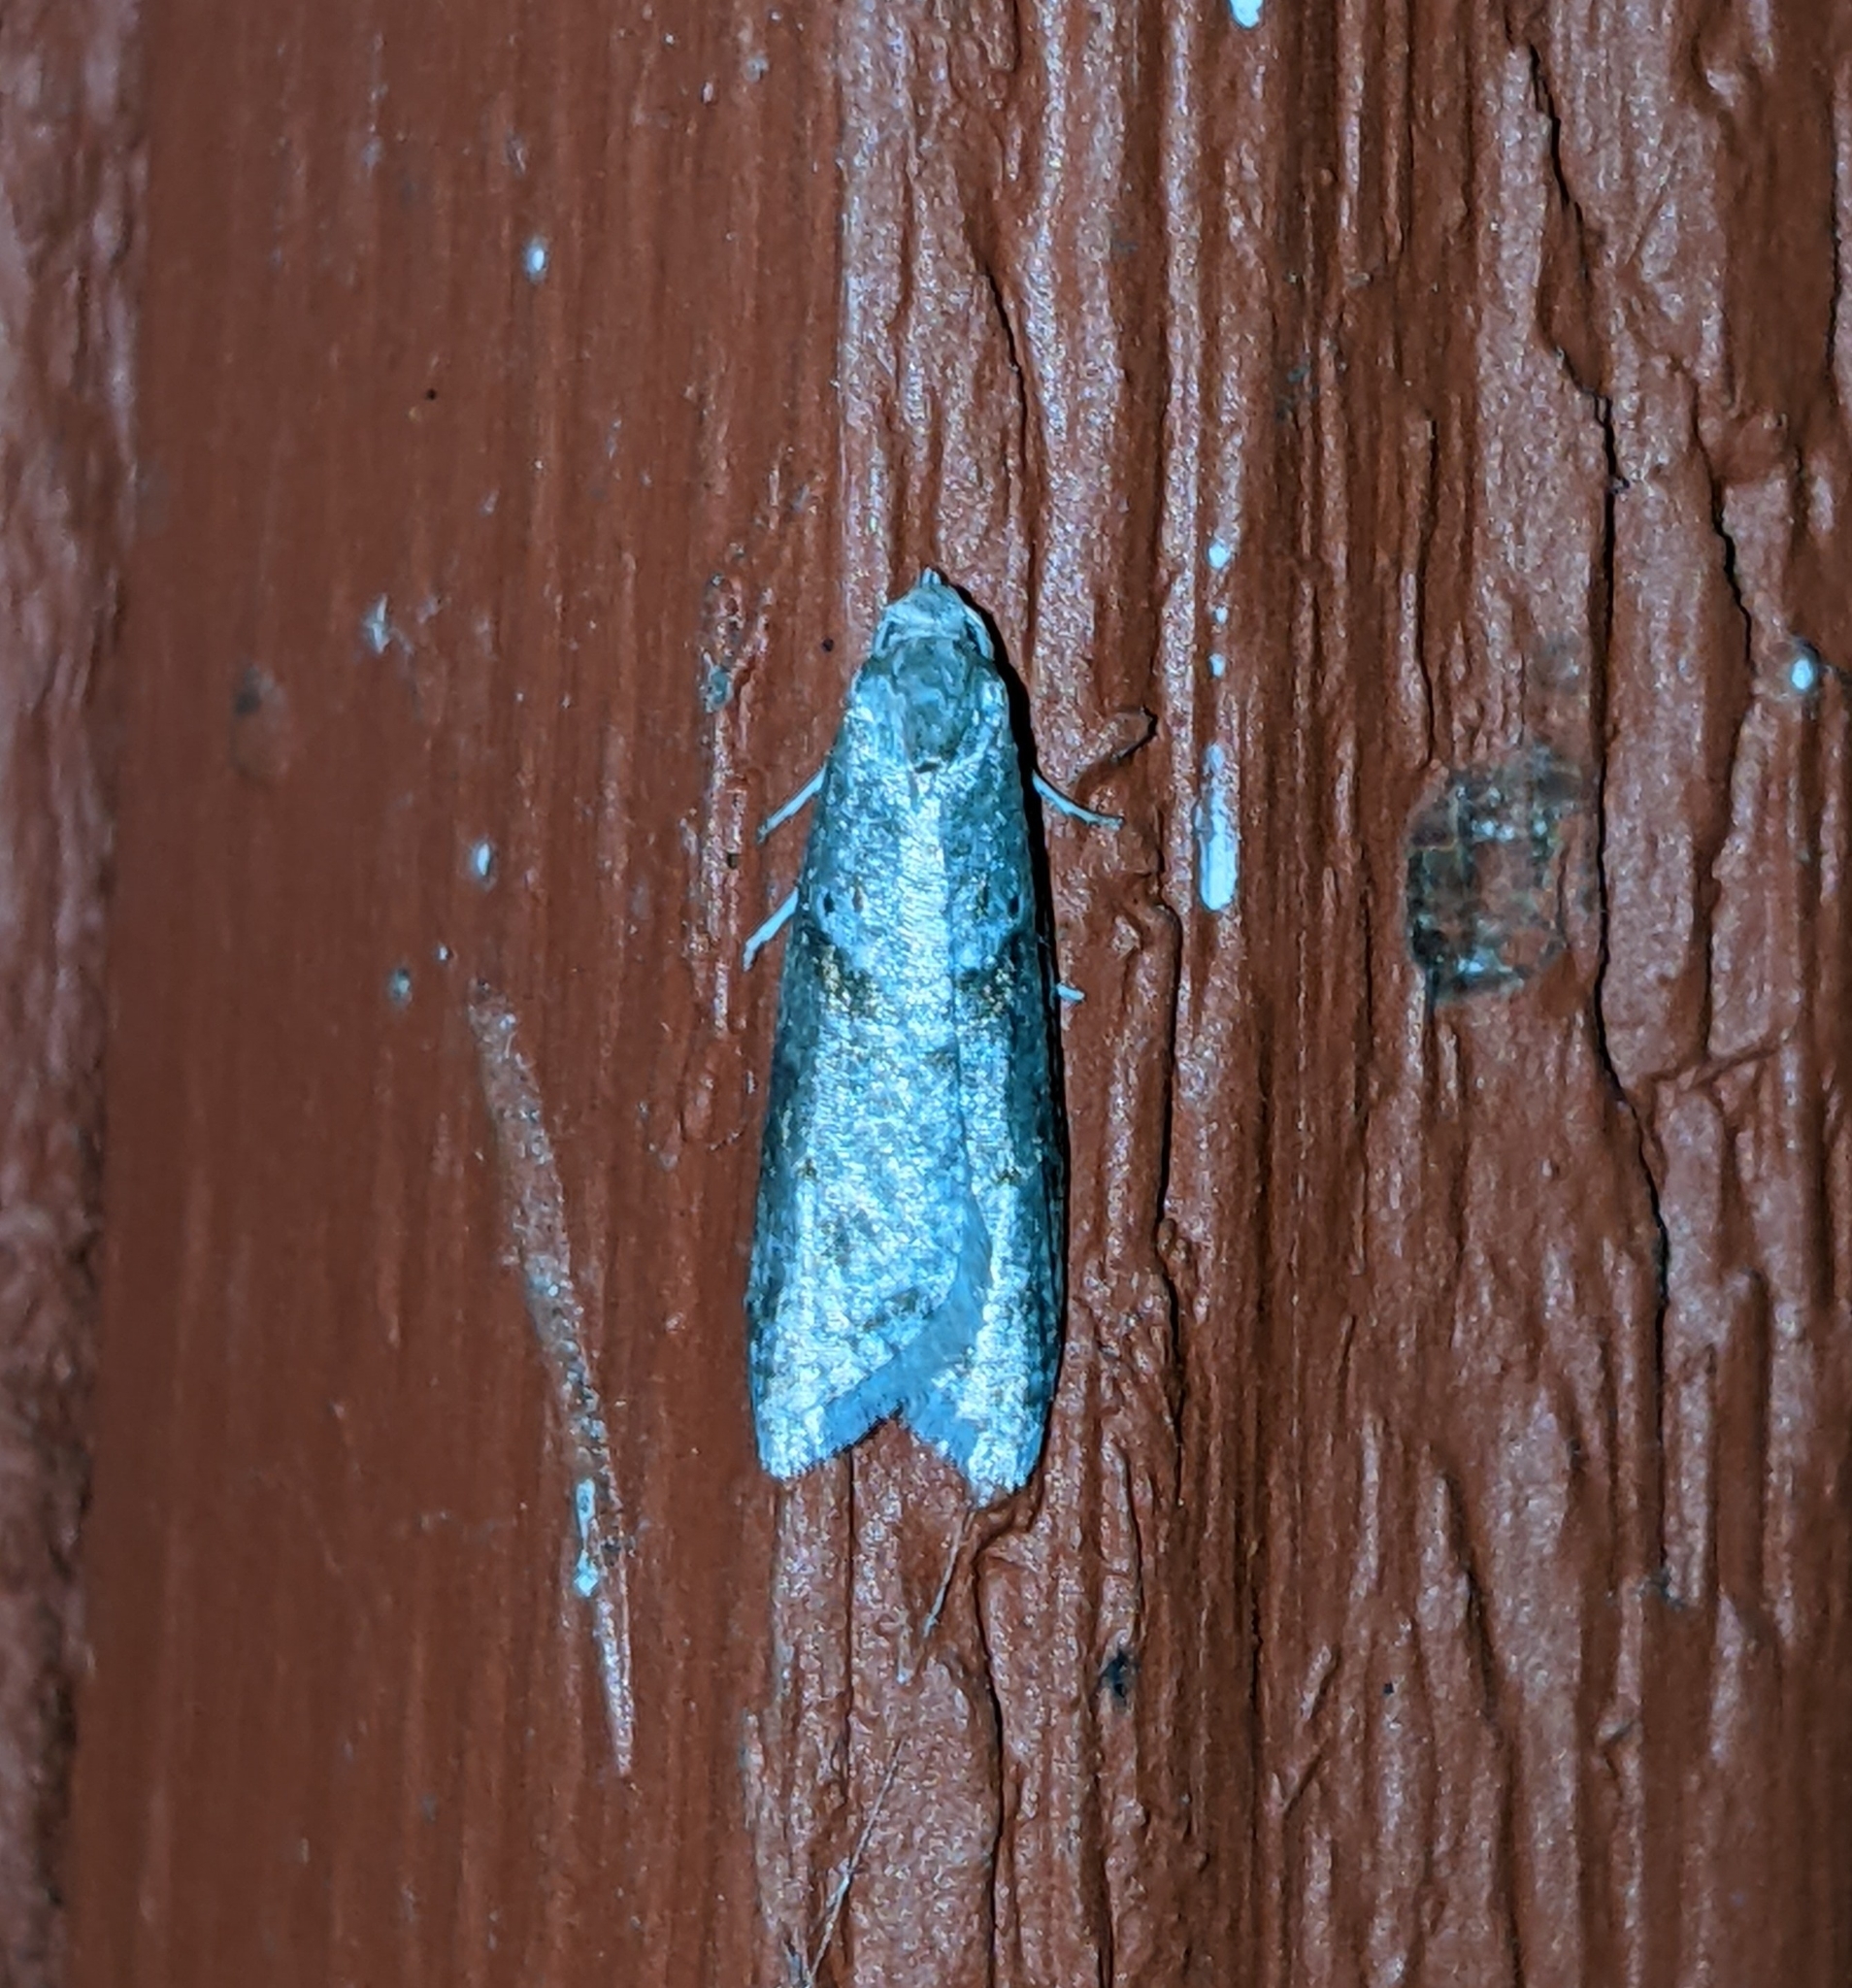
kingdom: Animalia
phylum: Arthropoda
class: Insecta
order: Lepidoptera
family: Copromorphidae
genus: Lotisma
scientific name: Lotisma trigonana
